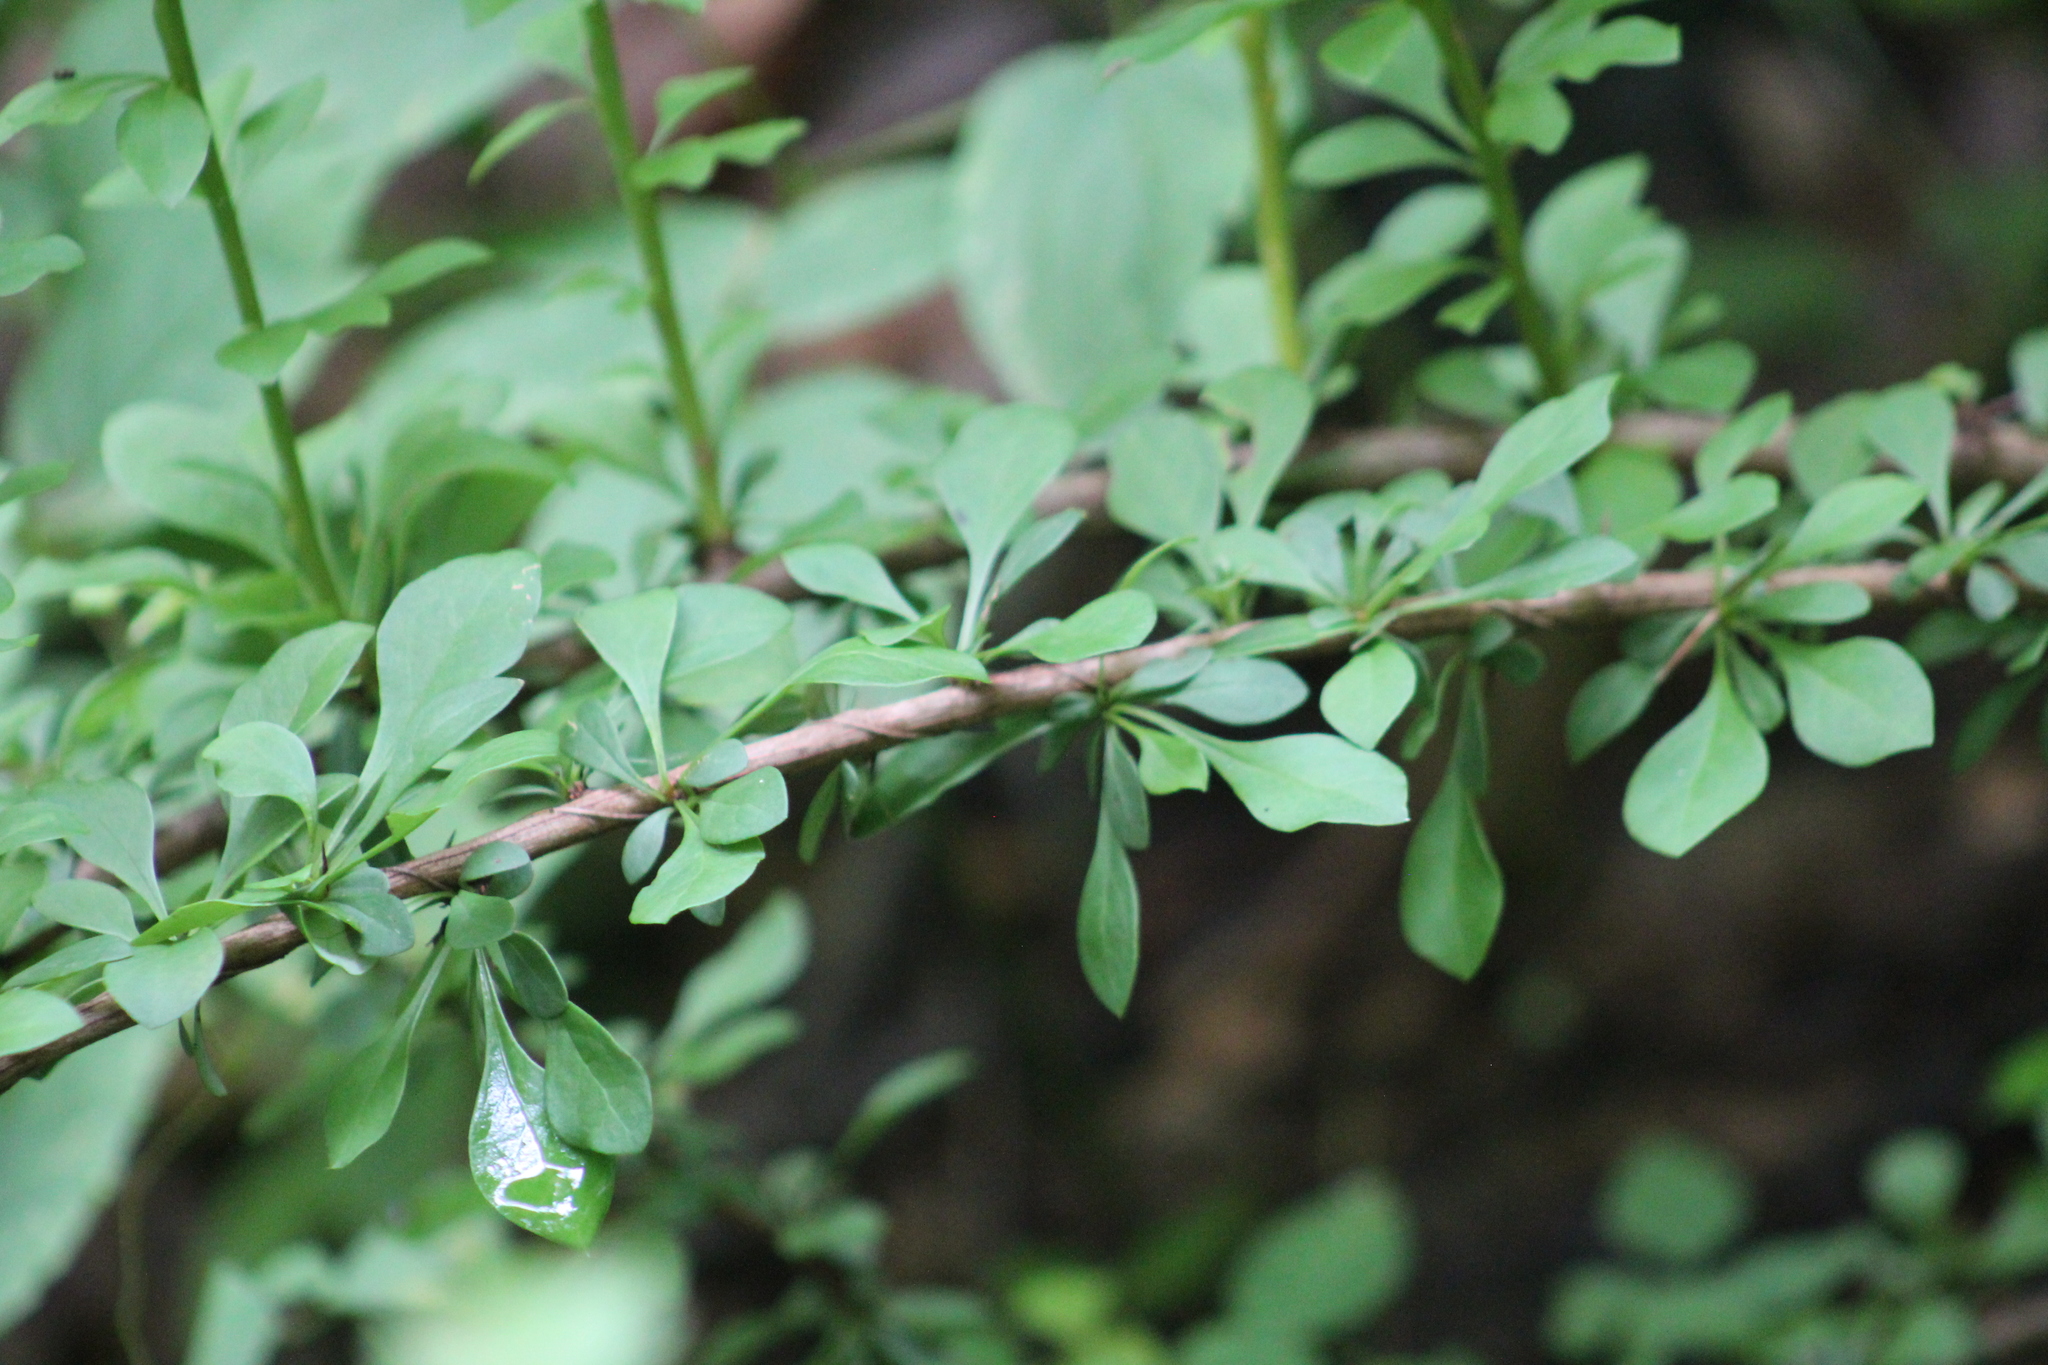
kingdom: Plantae
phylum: Tracheophyta
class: Magnoliopsida
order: Ranunculales
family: Berberidaceae
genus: Berberis
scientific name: Berberis thunbergii
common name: Japanese barberry
